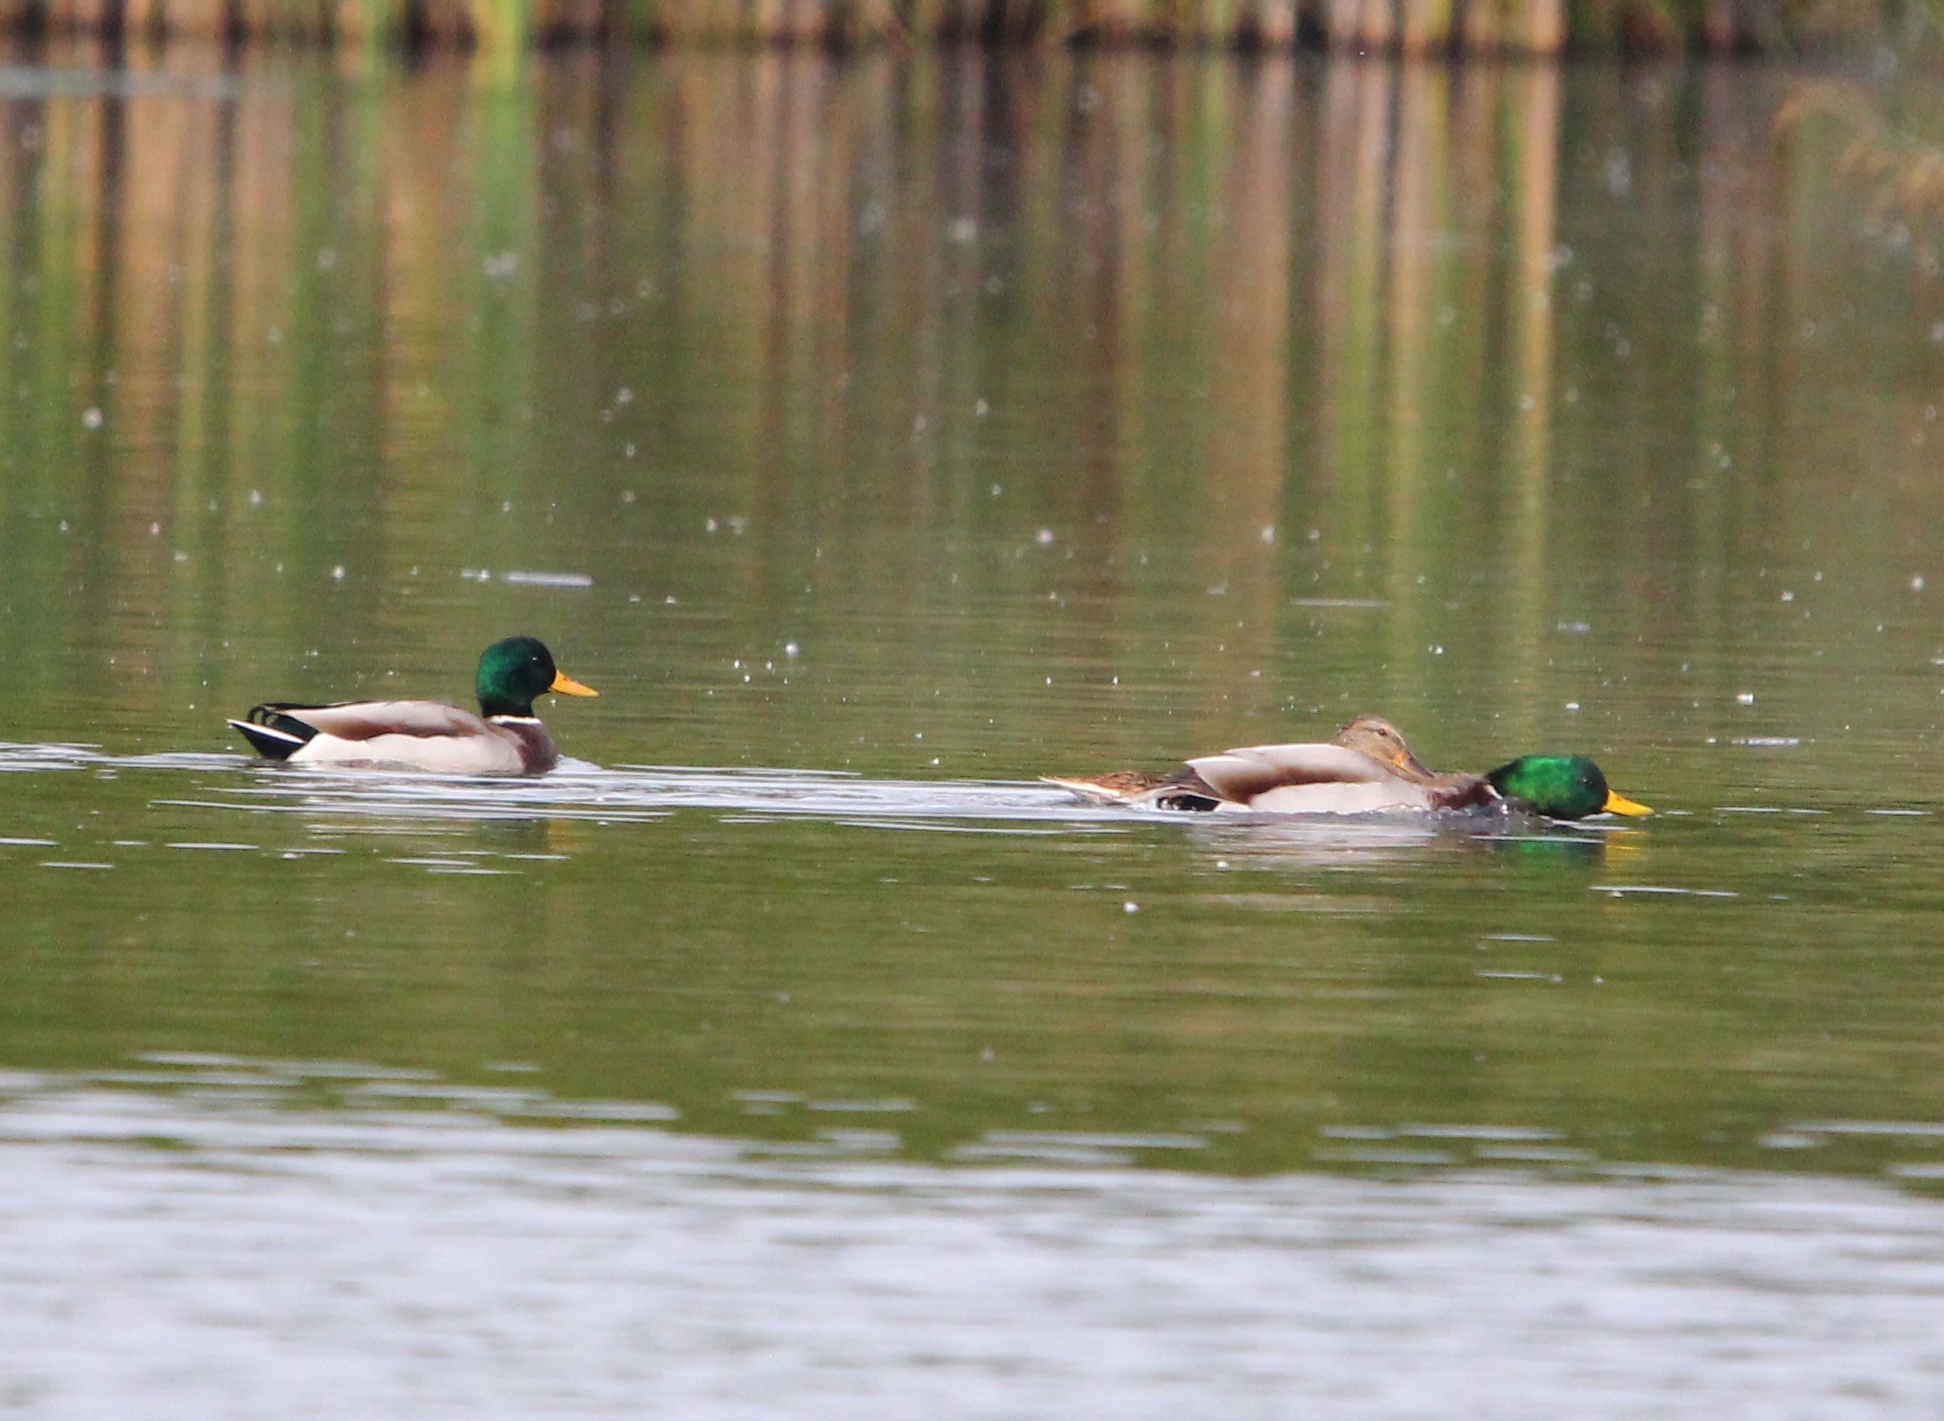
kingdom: Animalia
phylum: Chordata
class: Aves
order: Anseriformes
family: Anatidae
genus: Anas
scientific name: Anas platyrhynchos
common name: Mallard
